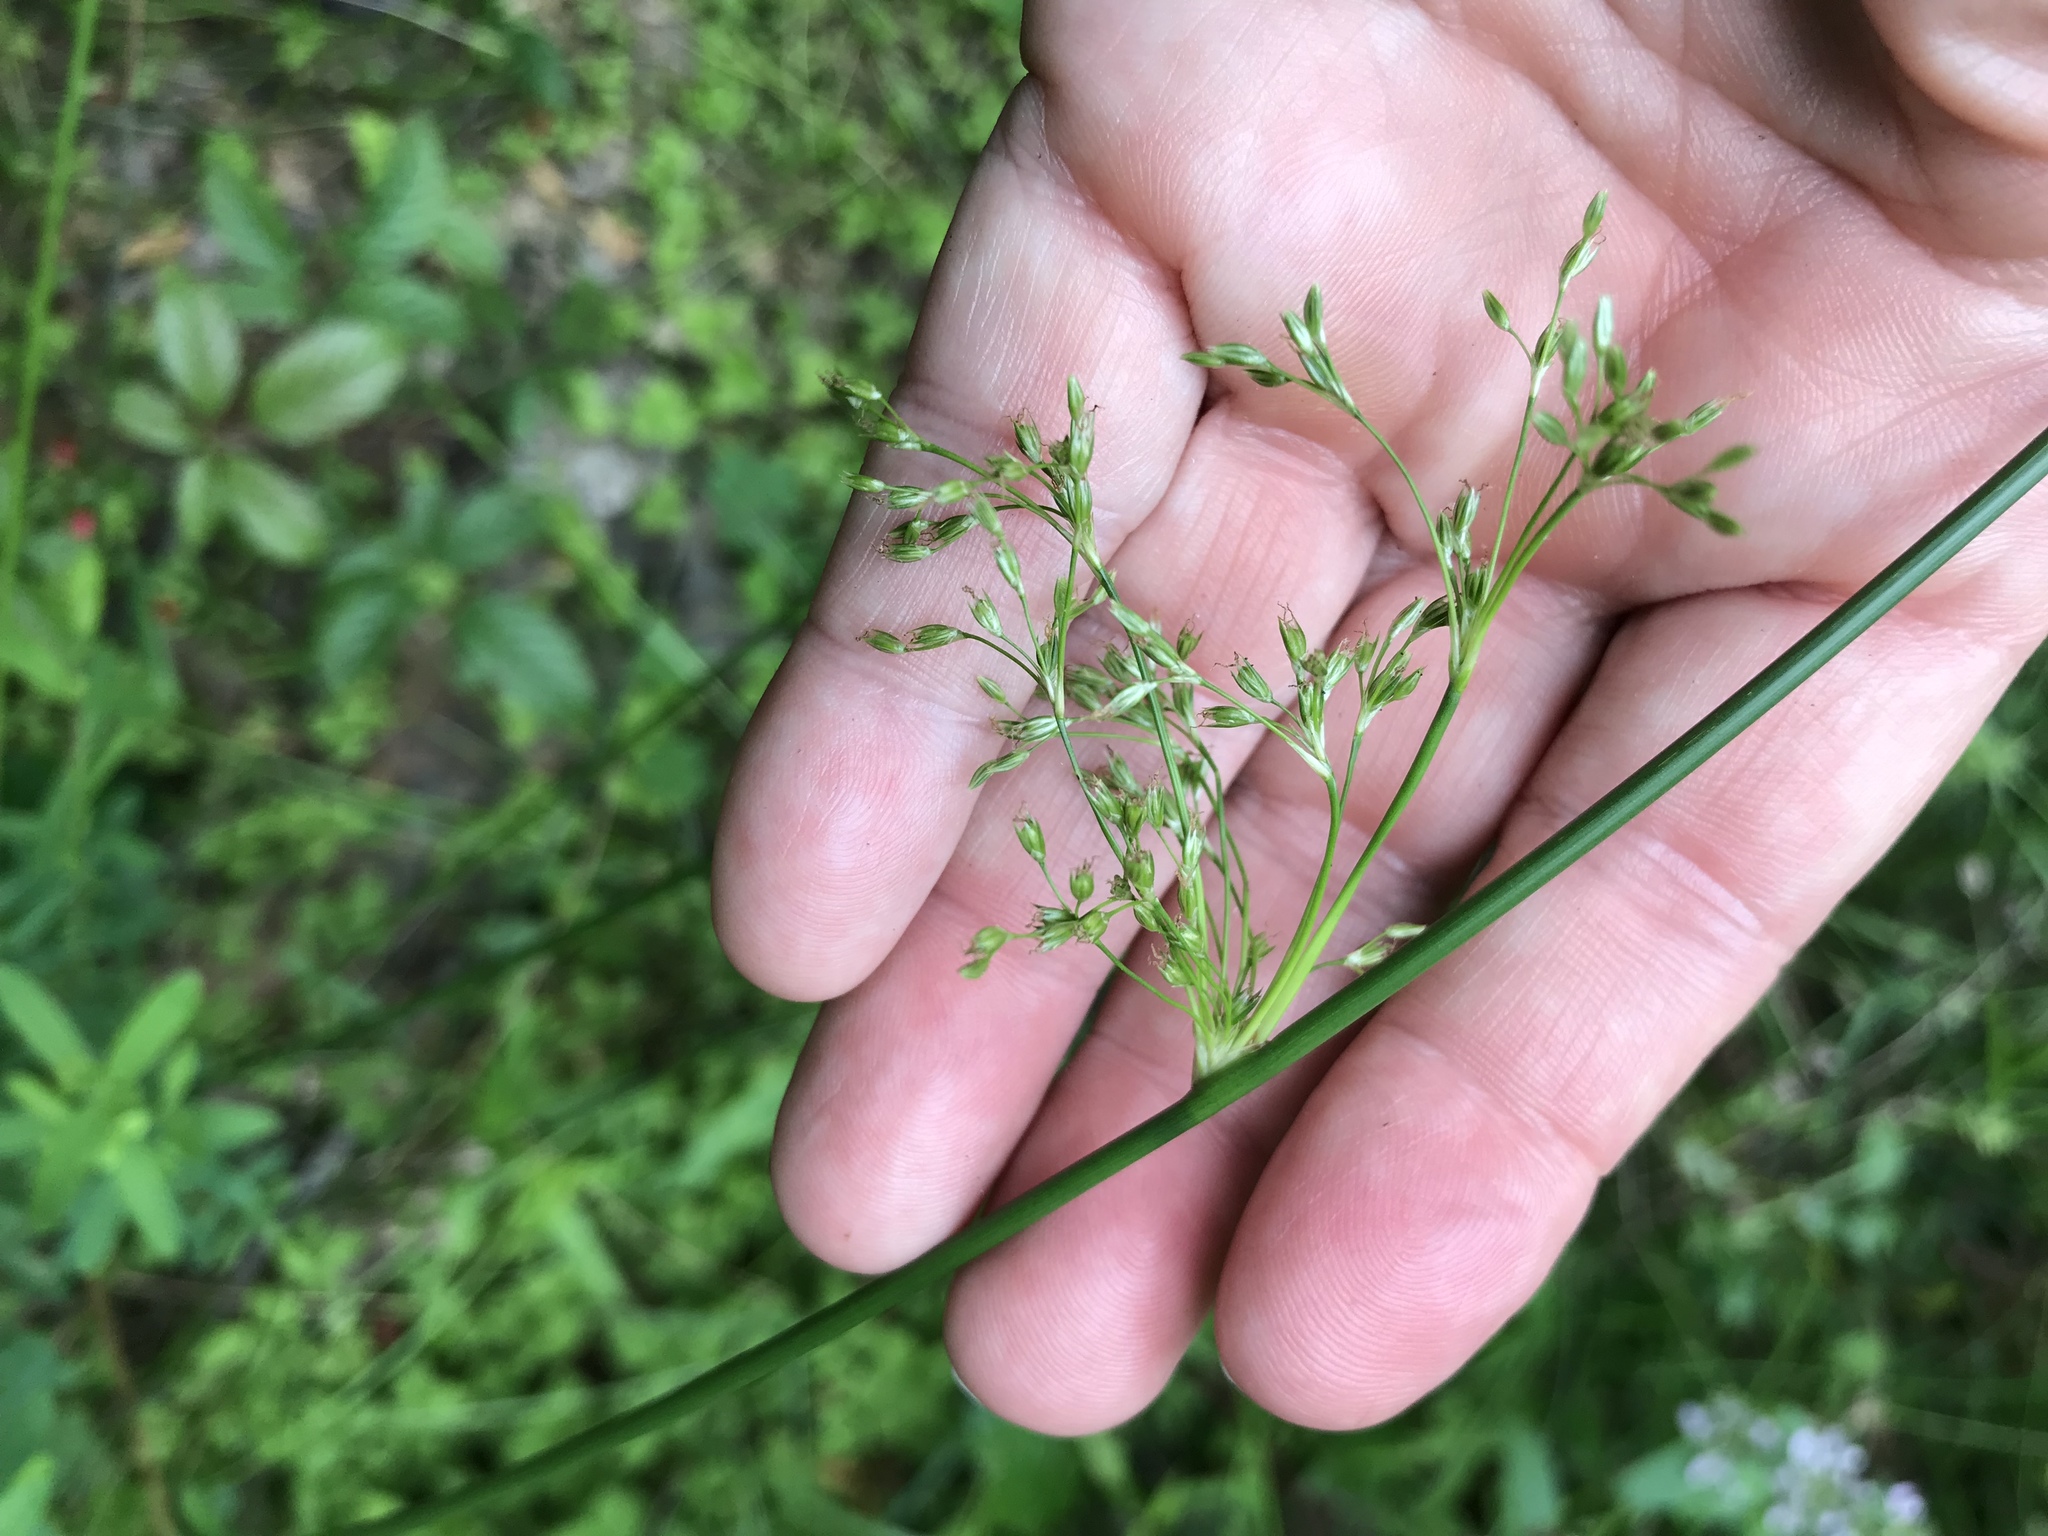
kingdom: Plantae
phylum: Tracheophyta
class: Liliopsida
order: Poales
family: Juncaceae
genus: Juncus
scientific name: Juncus effusus
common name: Soft rush
